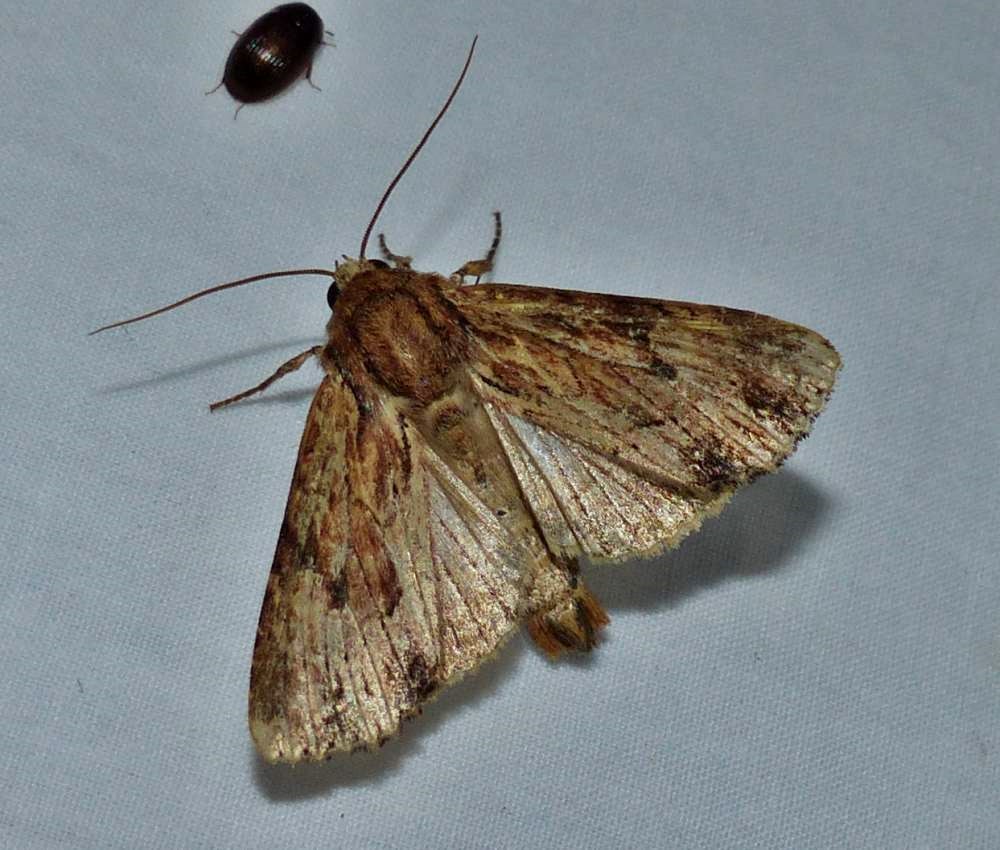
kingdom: Animalia
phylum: Arthropoda
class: Insecta
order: Lepidoptera
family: Noctuidae
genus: Apamea
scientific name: Apamea lignicolora
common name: Wood-colored apamea moth
